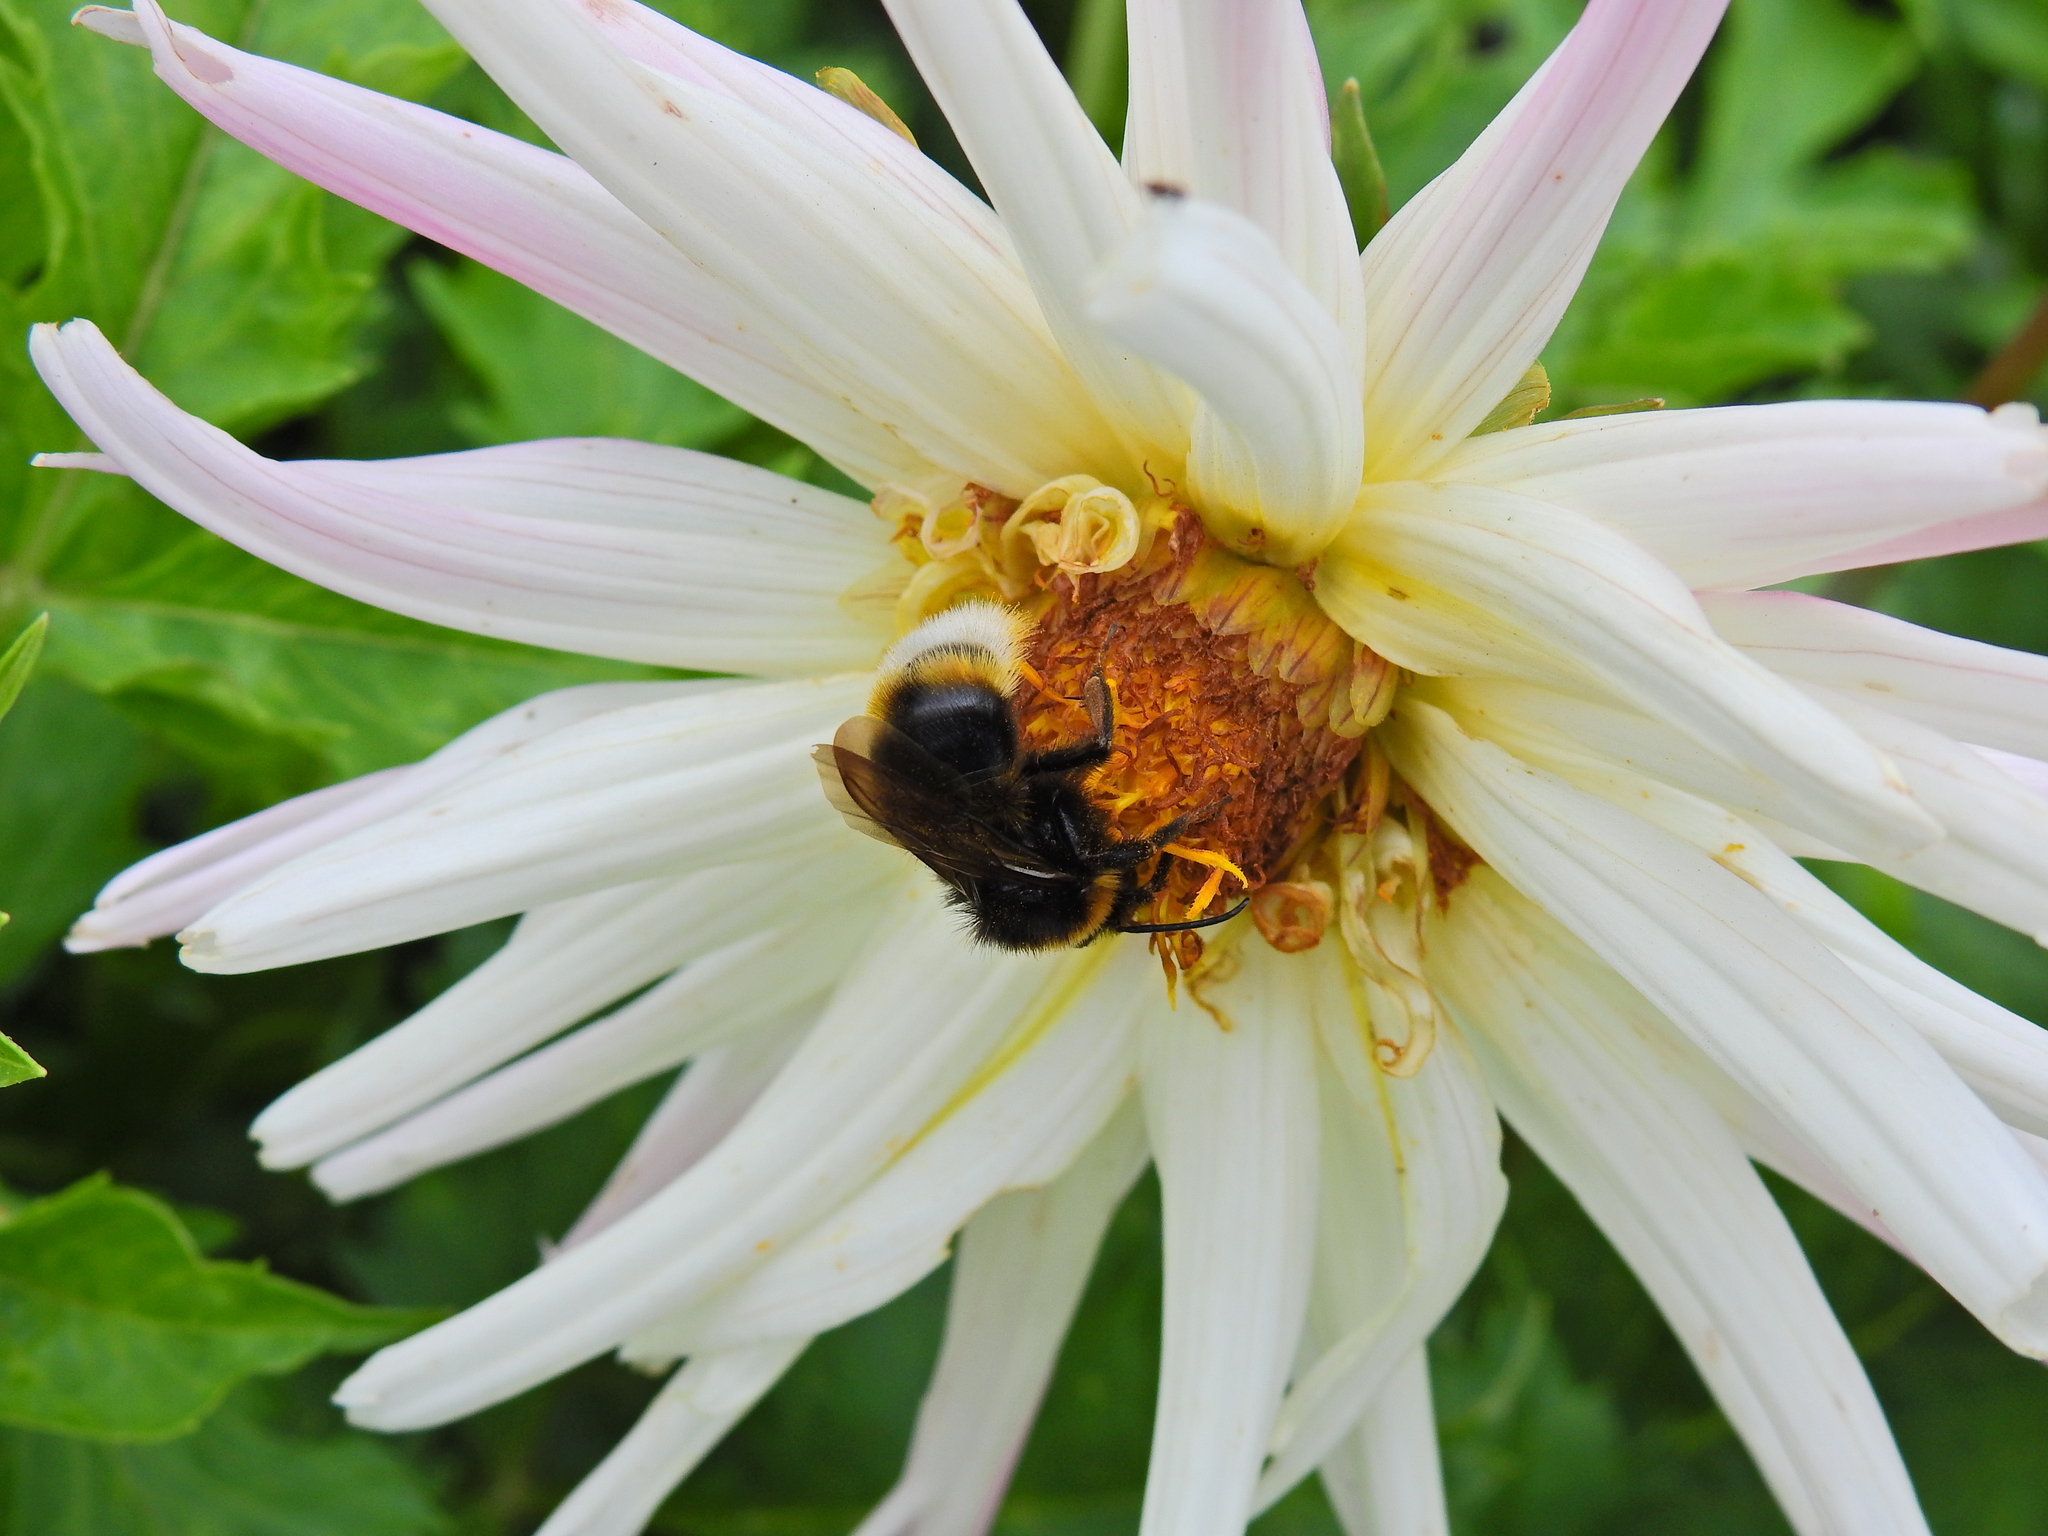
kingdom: Animalia
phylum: Arthropoda
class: Insecta
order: Hymenoptera
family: Apidae
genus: Bombus
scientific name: Bombus vestalis
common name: Vestal cuckoo bee
